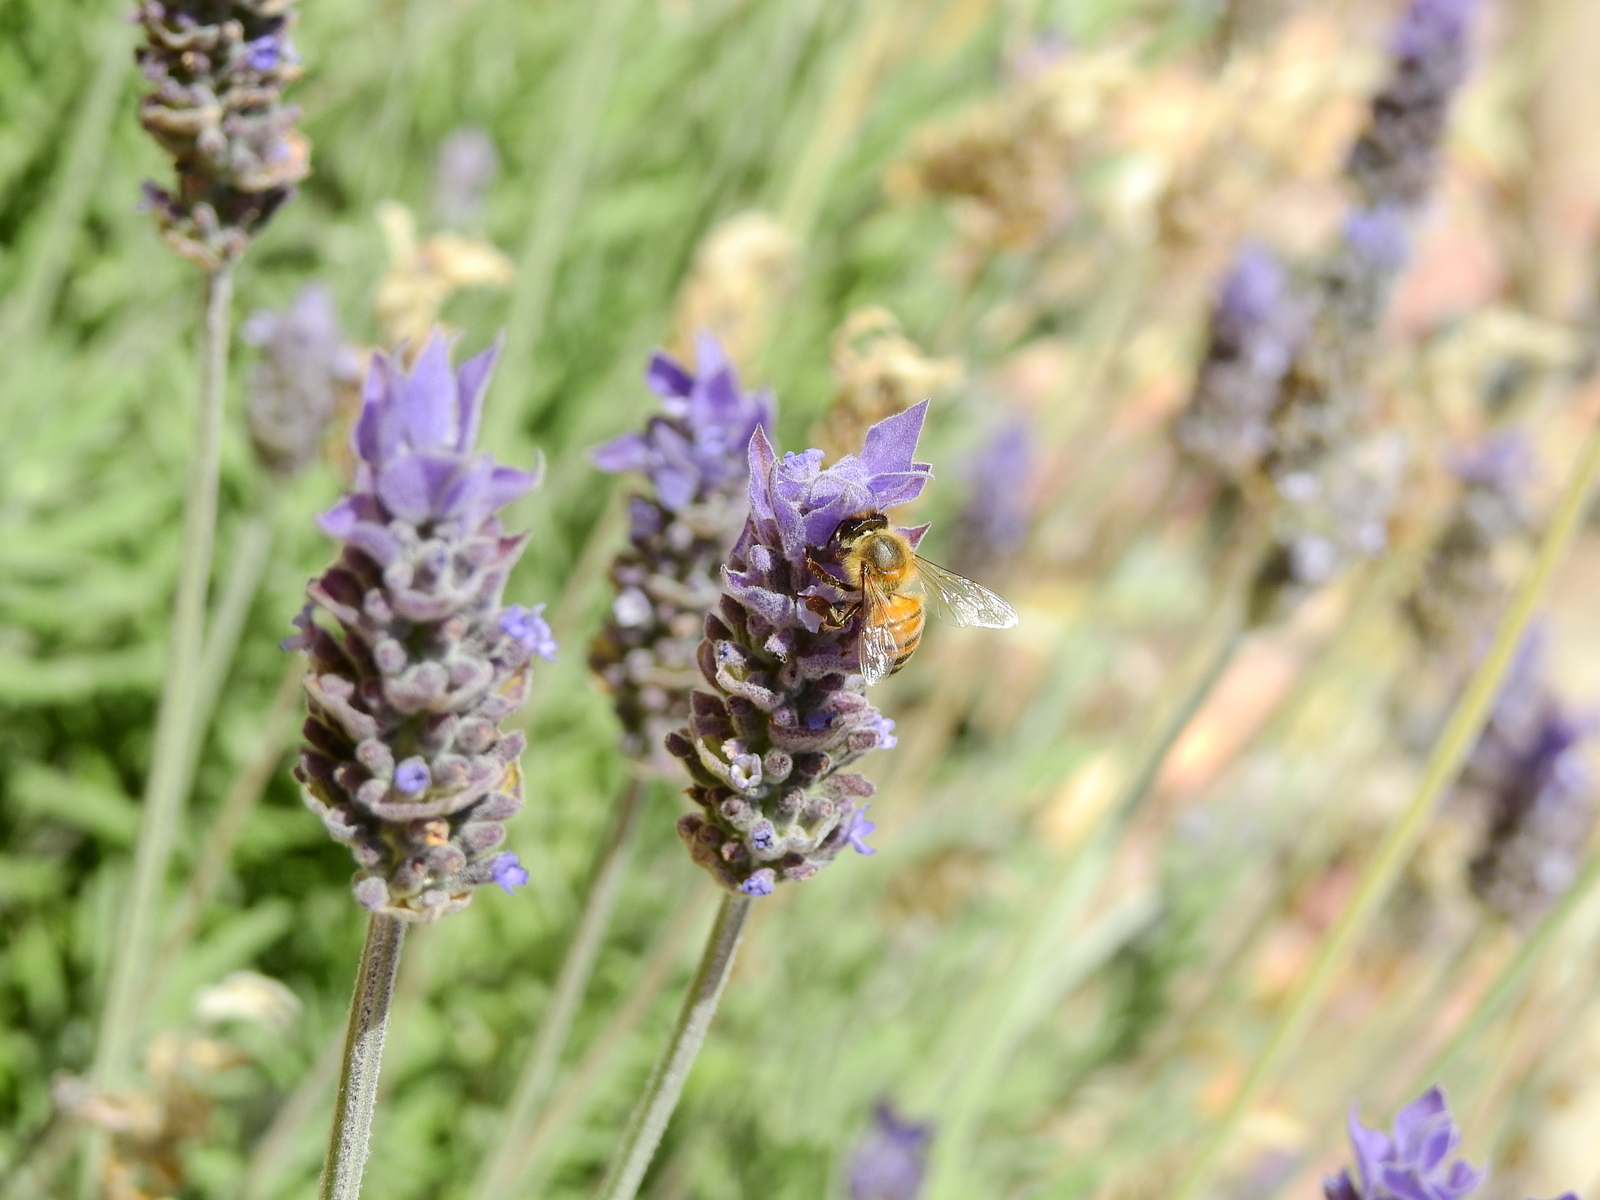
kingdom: Animalia
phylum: Arthropoda
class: Insecta
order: Hymenoptera
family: Apidae
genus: Apis
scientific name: Apis mellifera
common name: Honey bee
